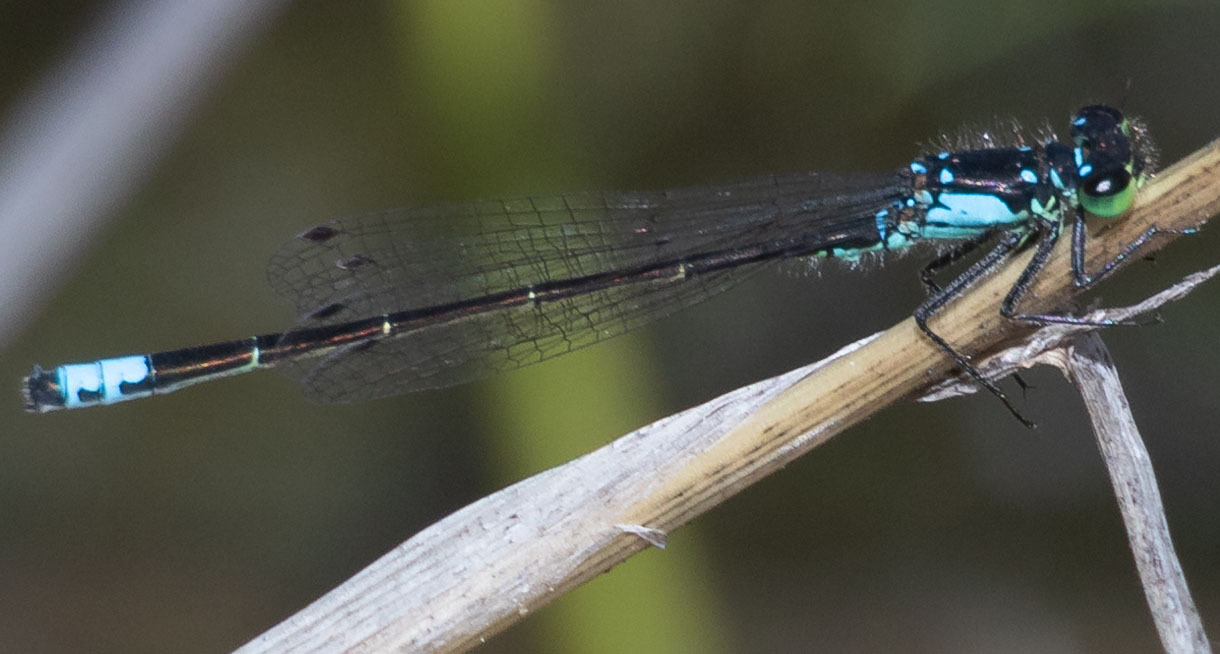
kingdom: Animalia
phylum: Arthropoda
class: Insecta
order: Odonata
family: Coenagrionidae
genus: Ischnura
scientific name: Ischnura cervula
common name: Pacific forktail
